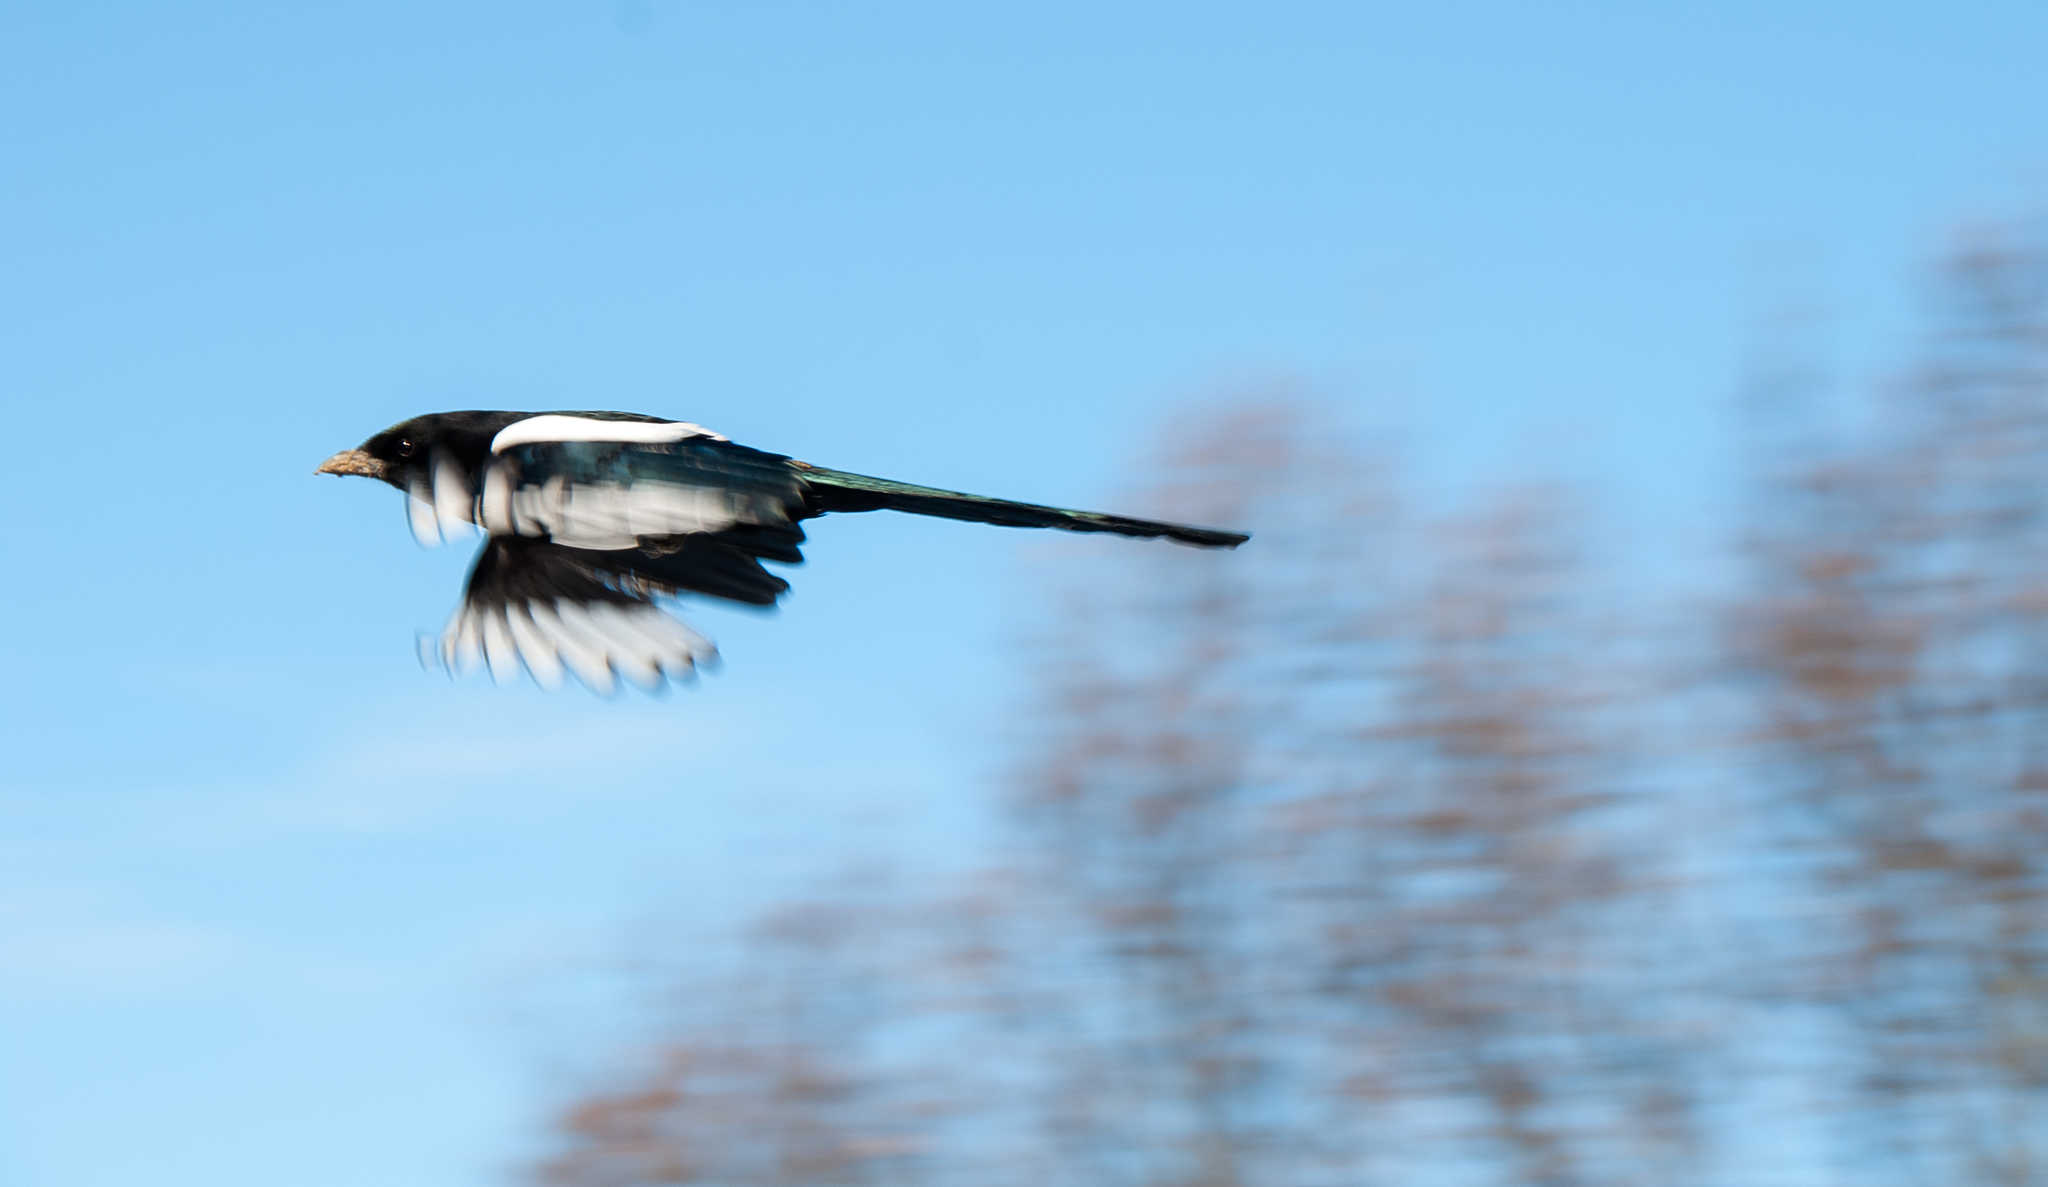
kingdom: Animalia
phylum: Chordata
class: Aves
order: Passeriformes
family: Corvidae
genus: Pica
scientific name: Pica pica
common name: Eurasian magpie
